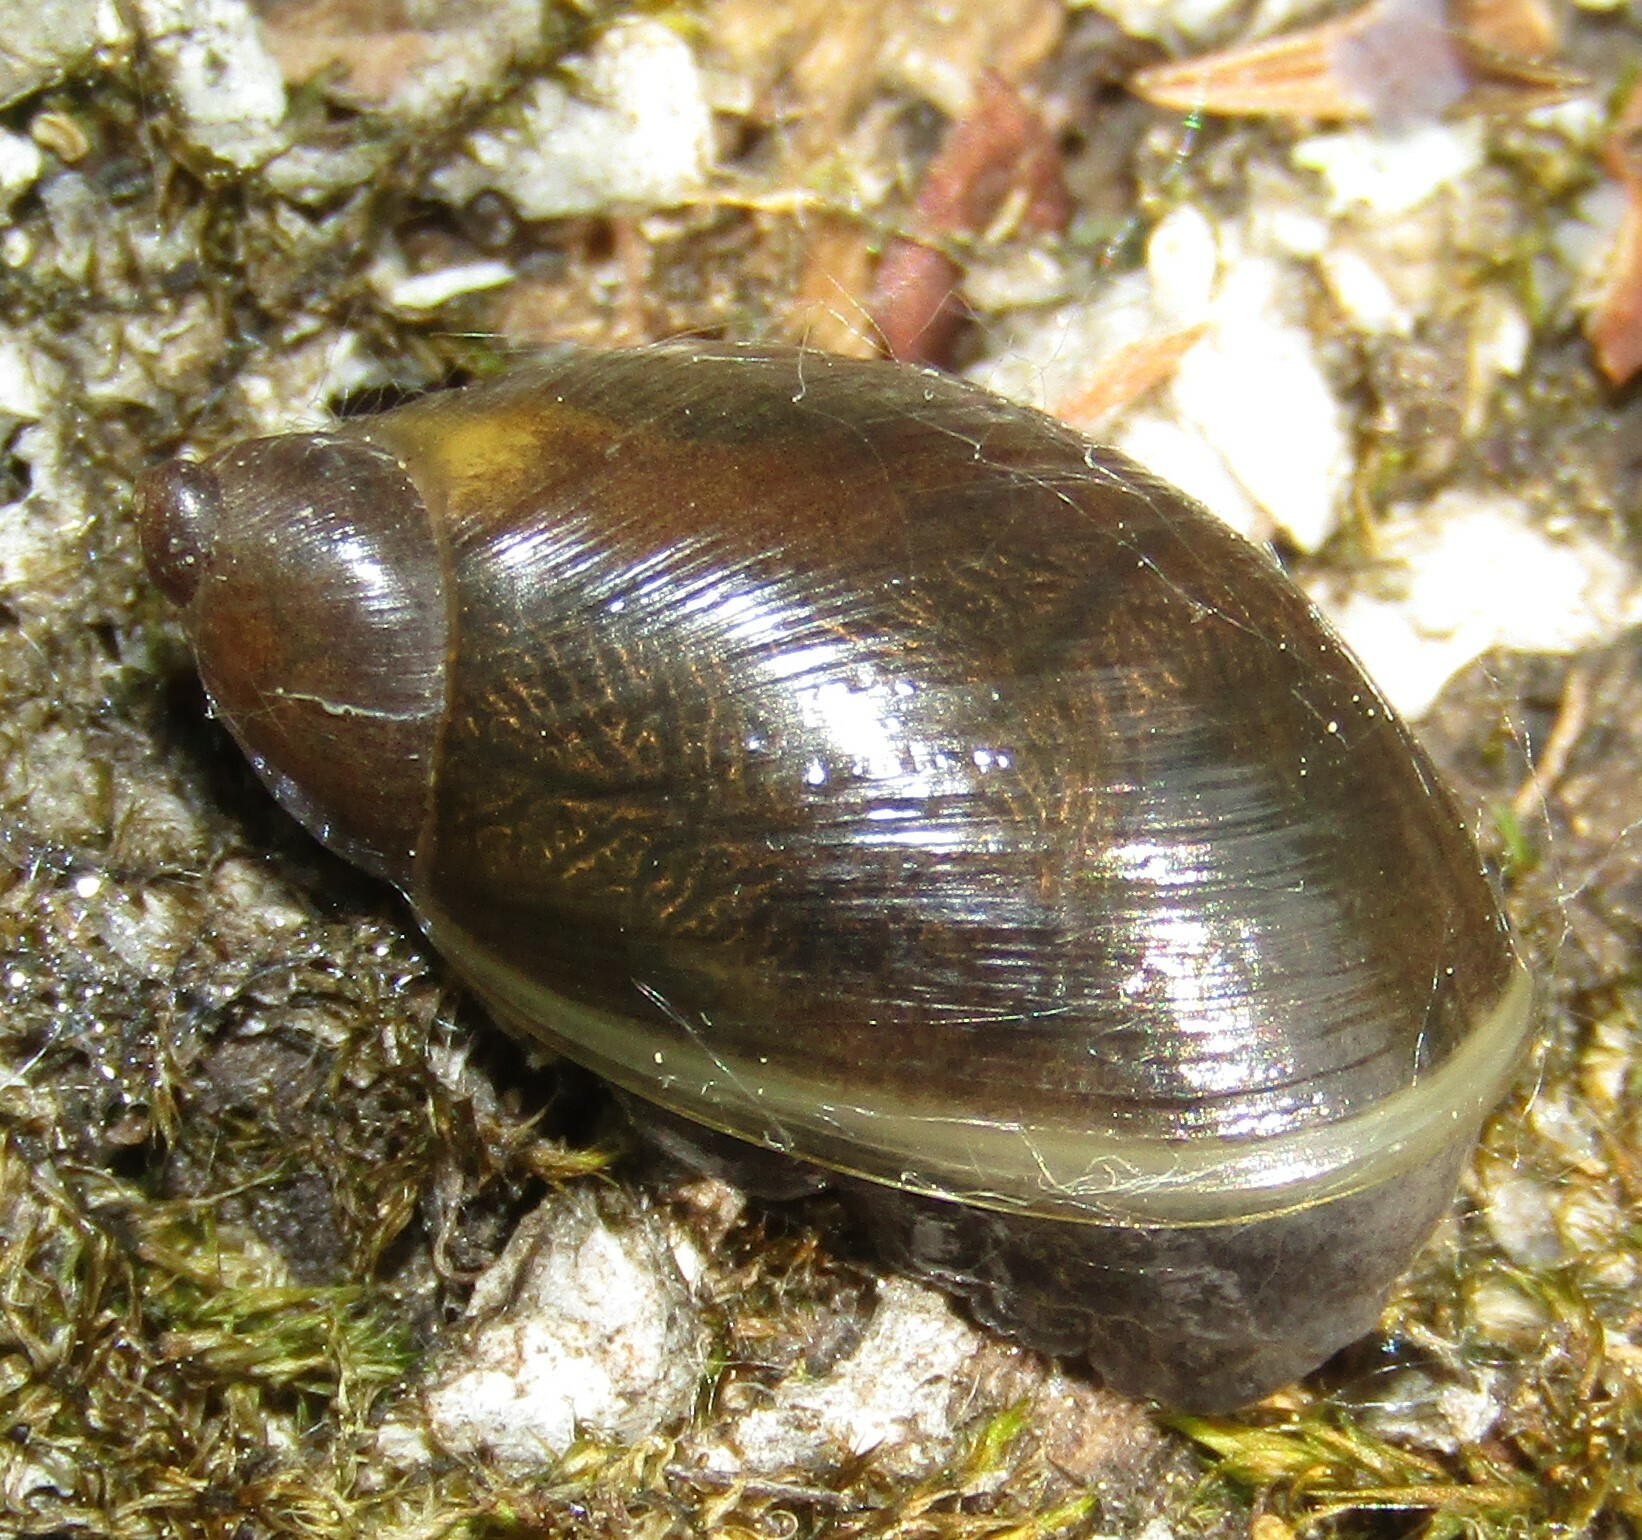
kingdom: Animalia
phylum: Mollusca
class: Gastropoda
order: Stylommatophora
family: Succineidae
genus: Succinea
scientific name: Succinea putris
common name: European ambersnail
